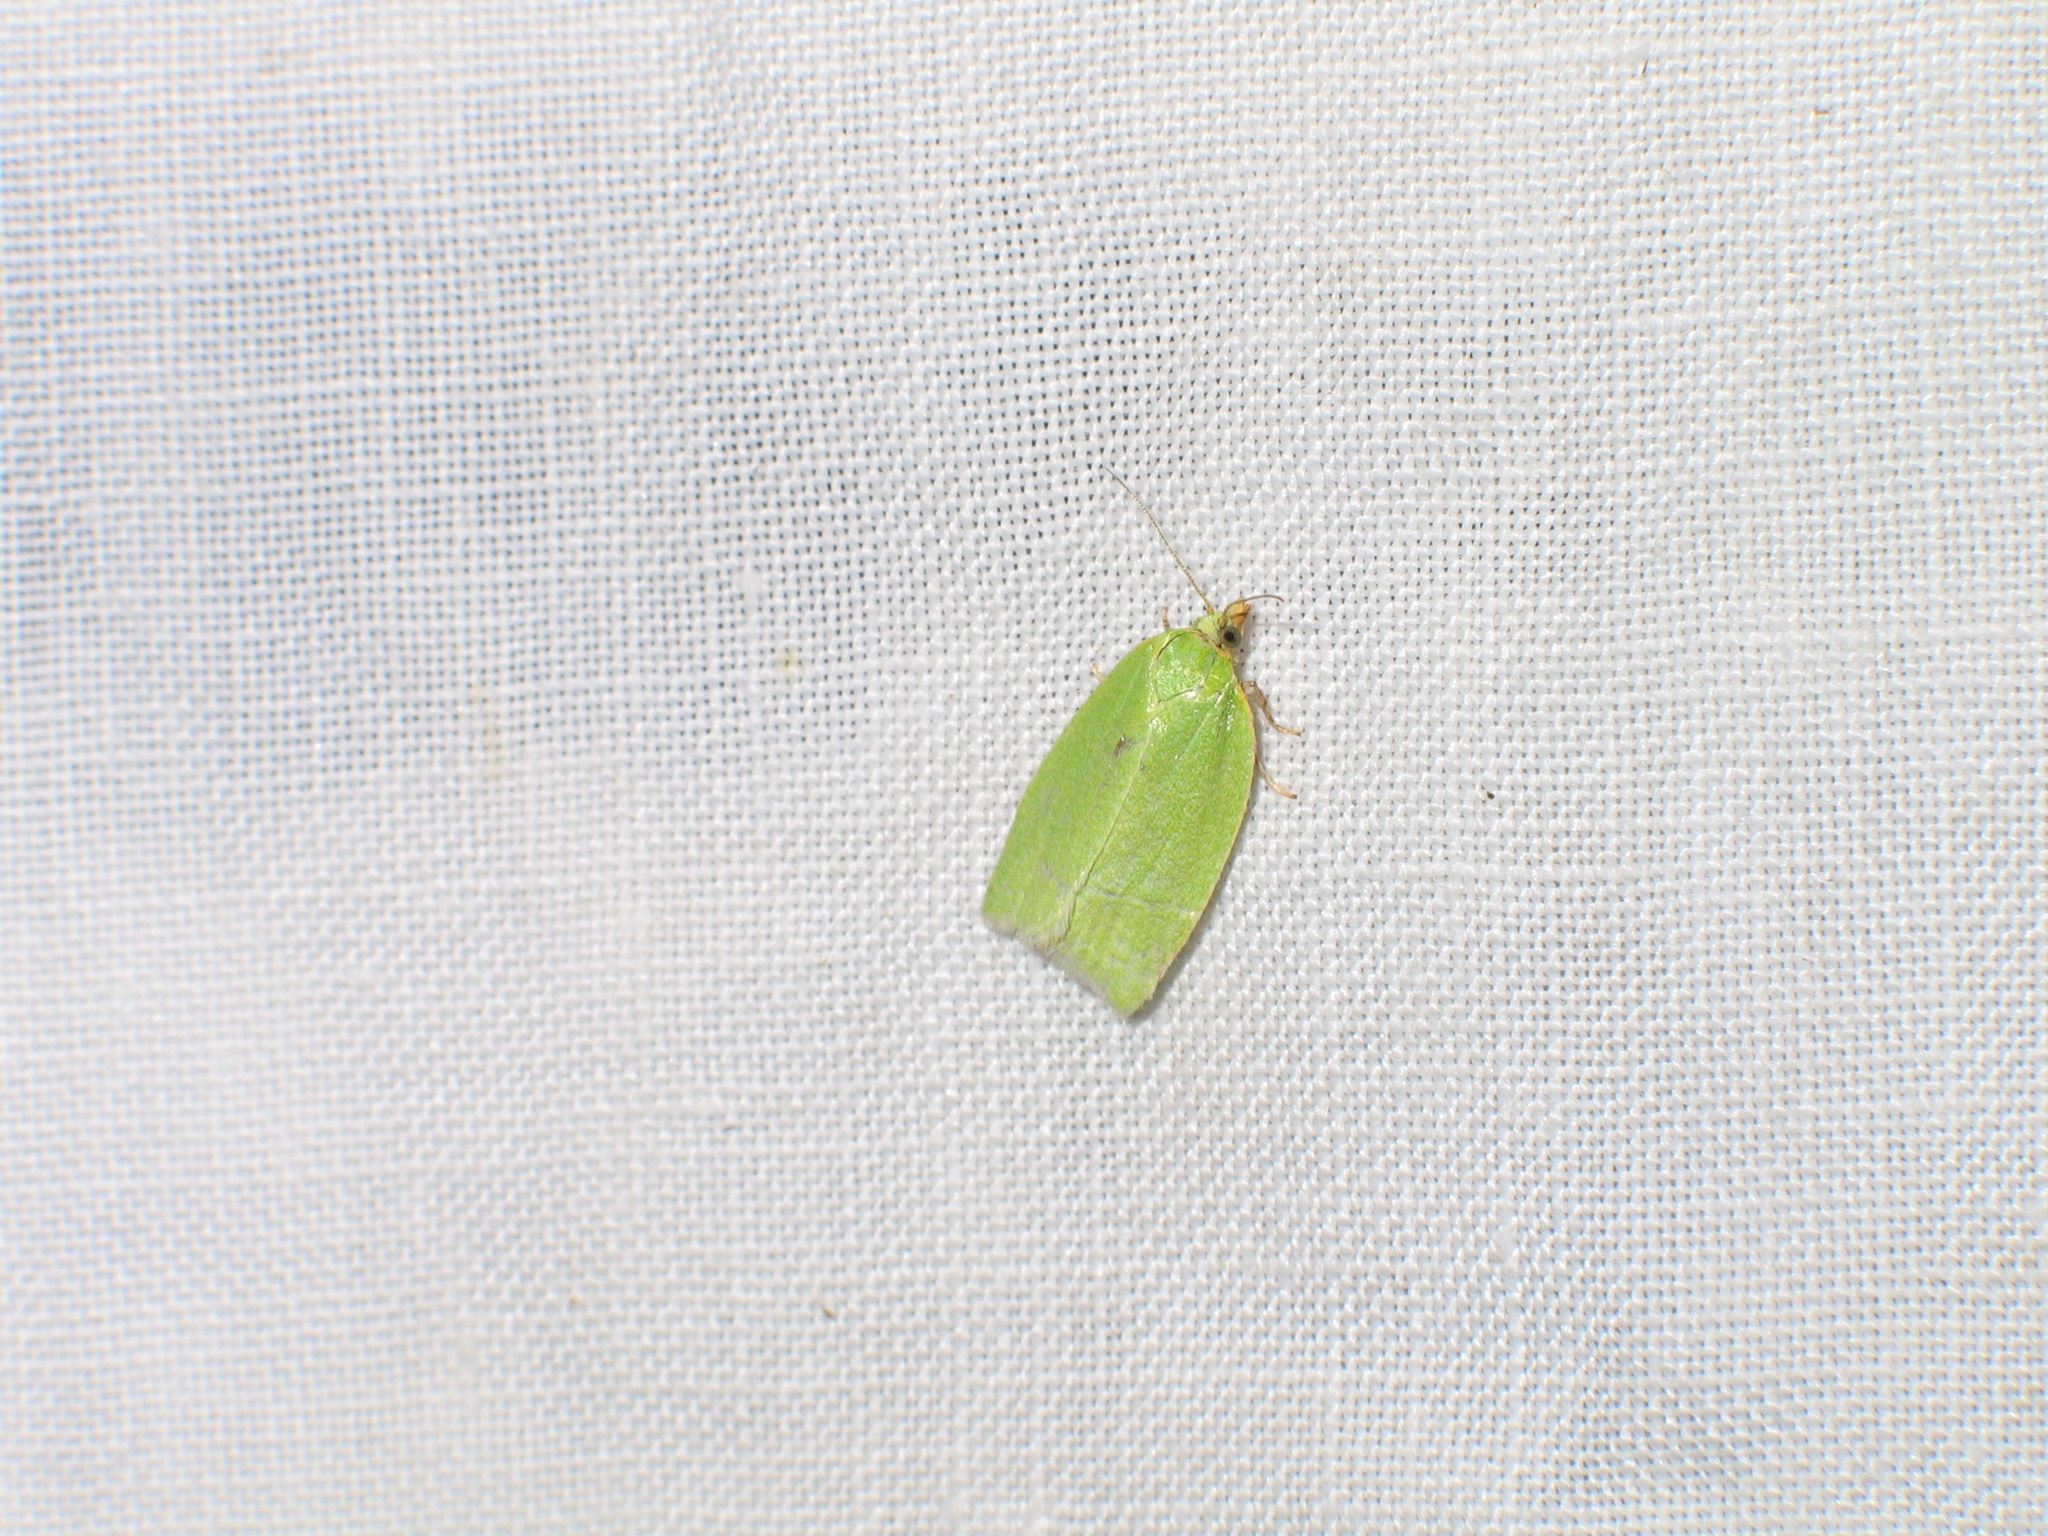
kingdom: Animalia
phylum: Arthropoda
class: Insecta
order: Lepidoptera
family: Tortricidae
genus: Tortrix
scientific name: Tortrix viridana
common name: Green oak tortrix
